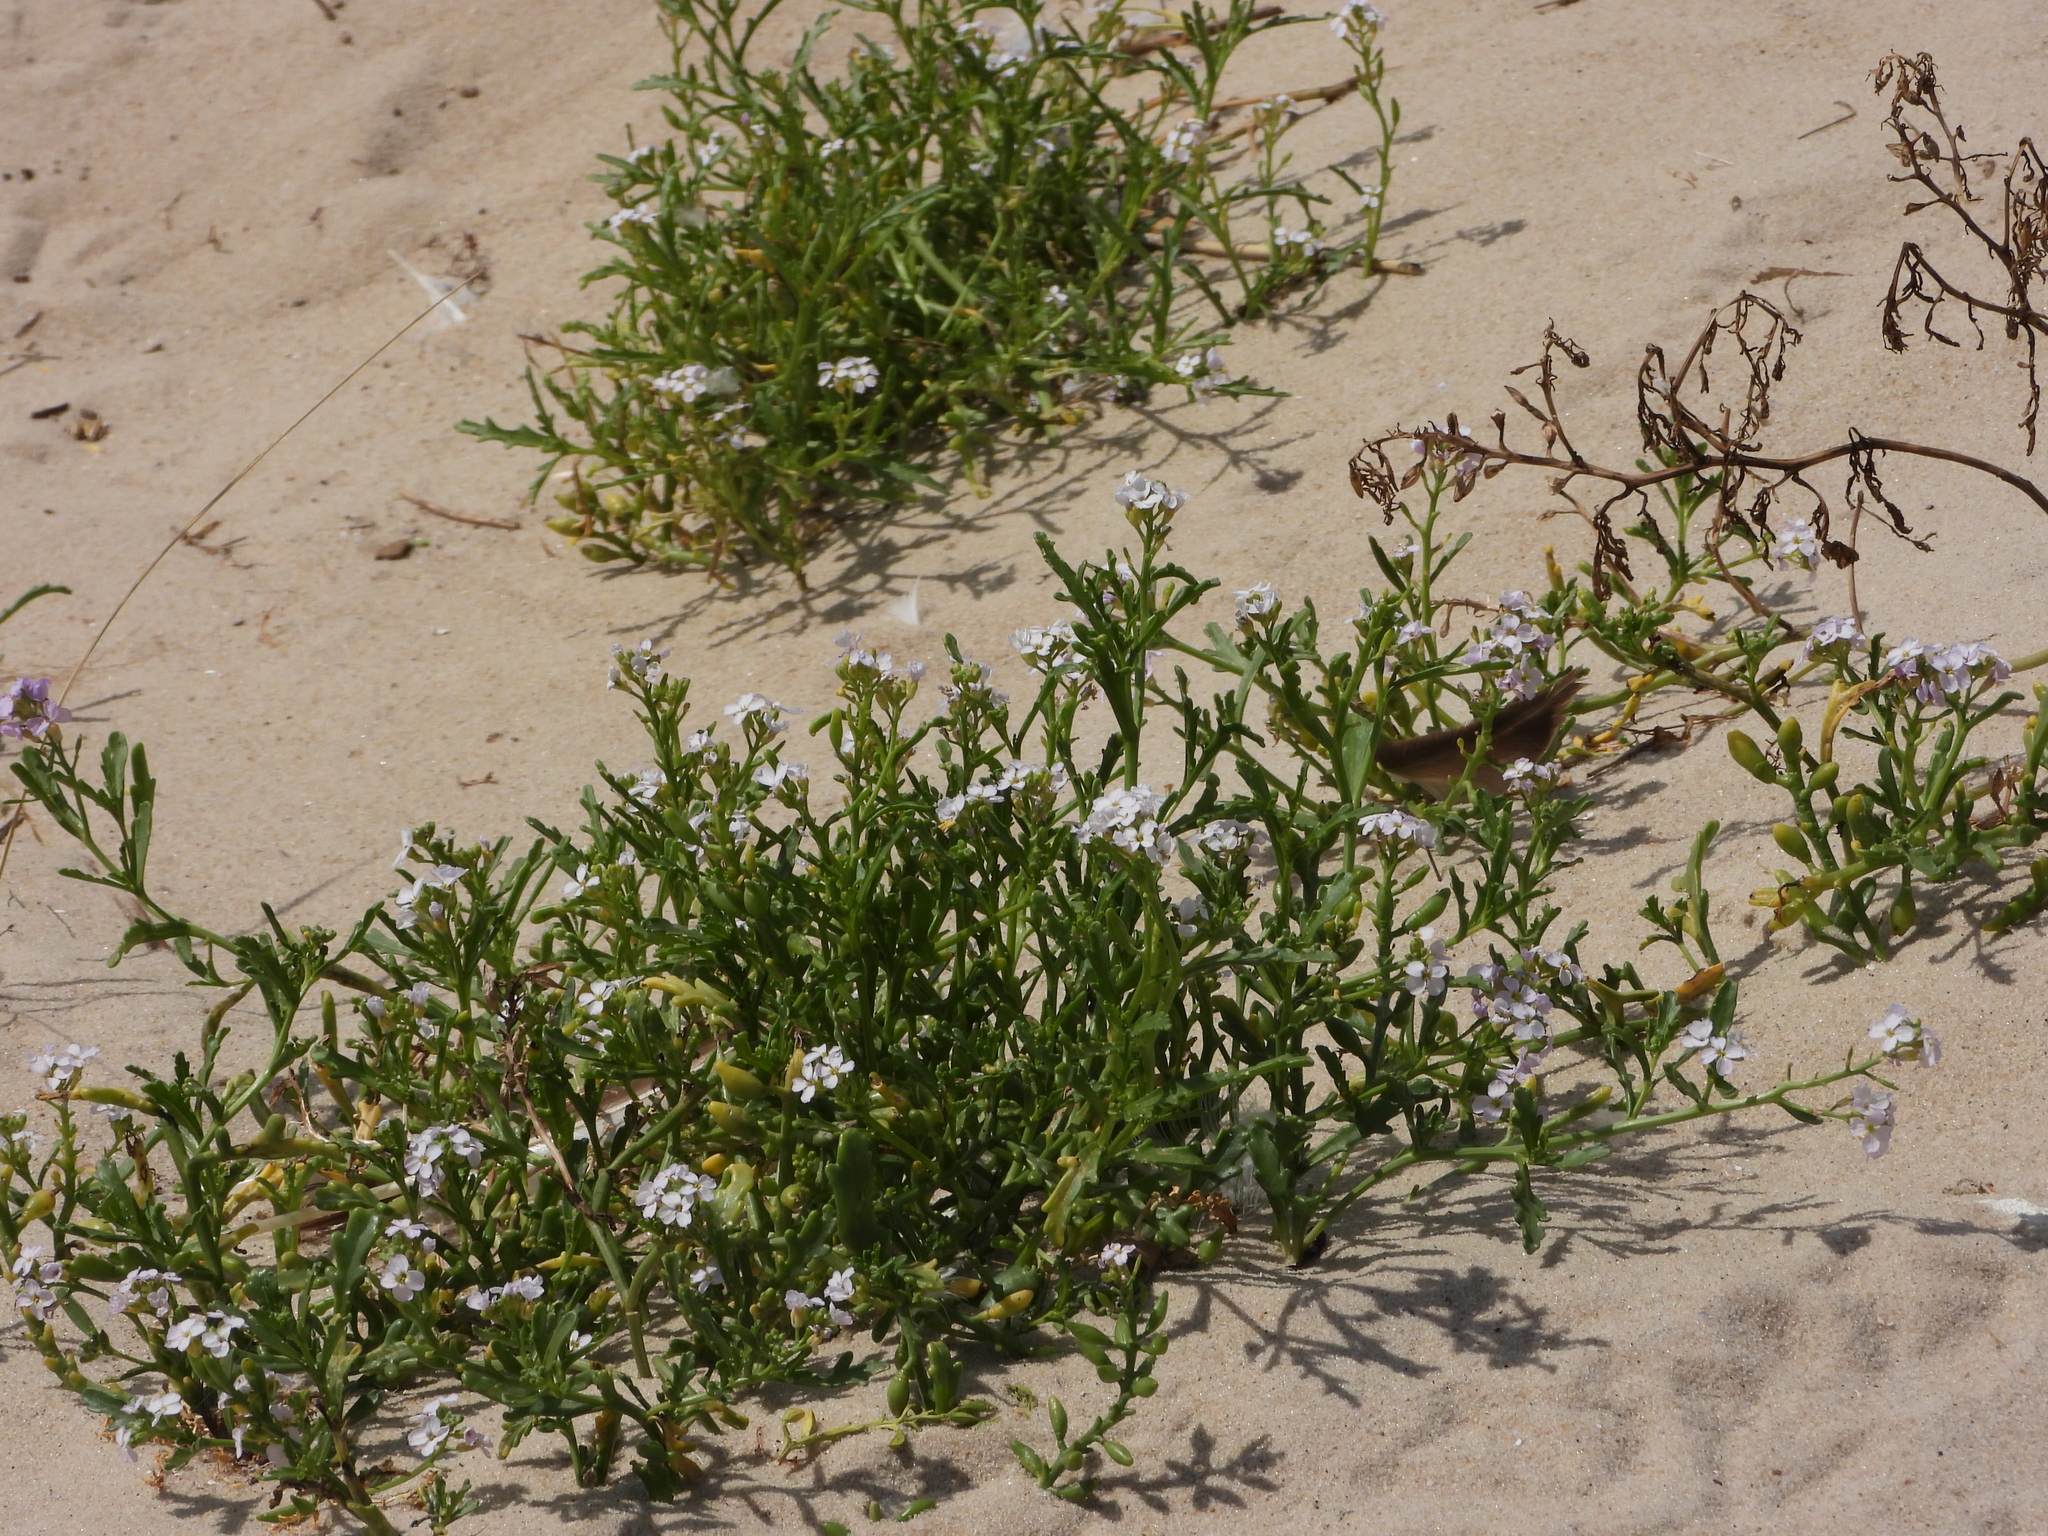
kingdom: Plantae
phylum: Tracheophyta
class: Magnoliopsida
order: Brassicales
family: Brassicaceae
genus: Cakile
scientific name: Cakile maritima
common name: Sea rocket
